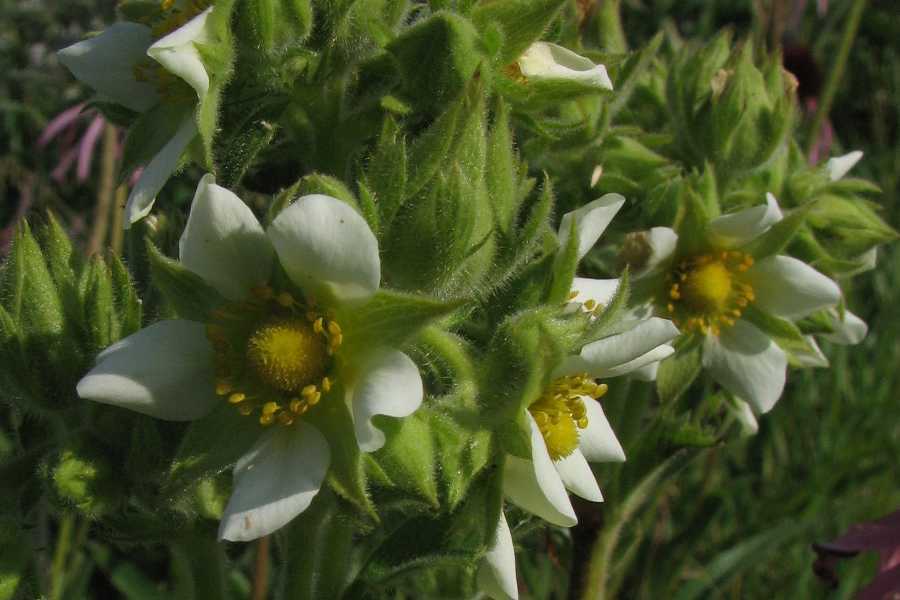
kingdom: Plantae
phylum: Tracheophyta
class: Magnoliopsida
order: Rosales
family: Rosaceae
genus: Drymocallis
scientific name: Drymocallis arguta
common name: Tall cinquefoil
